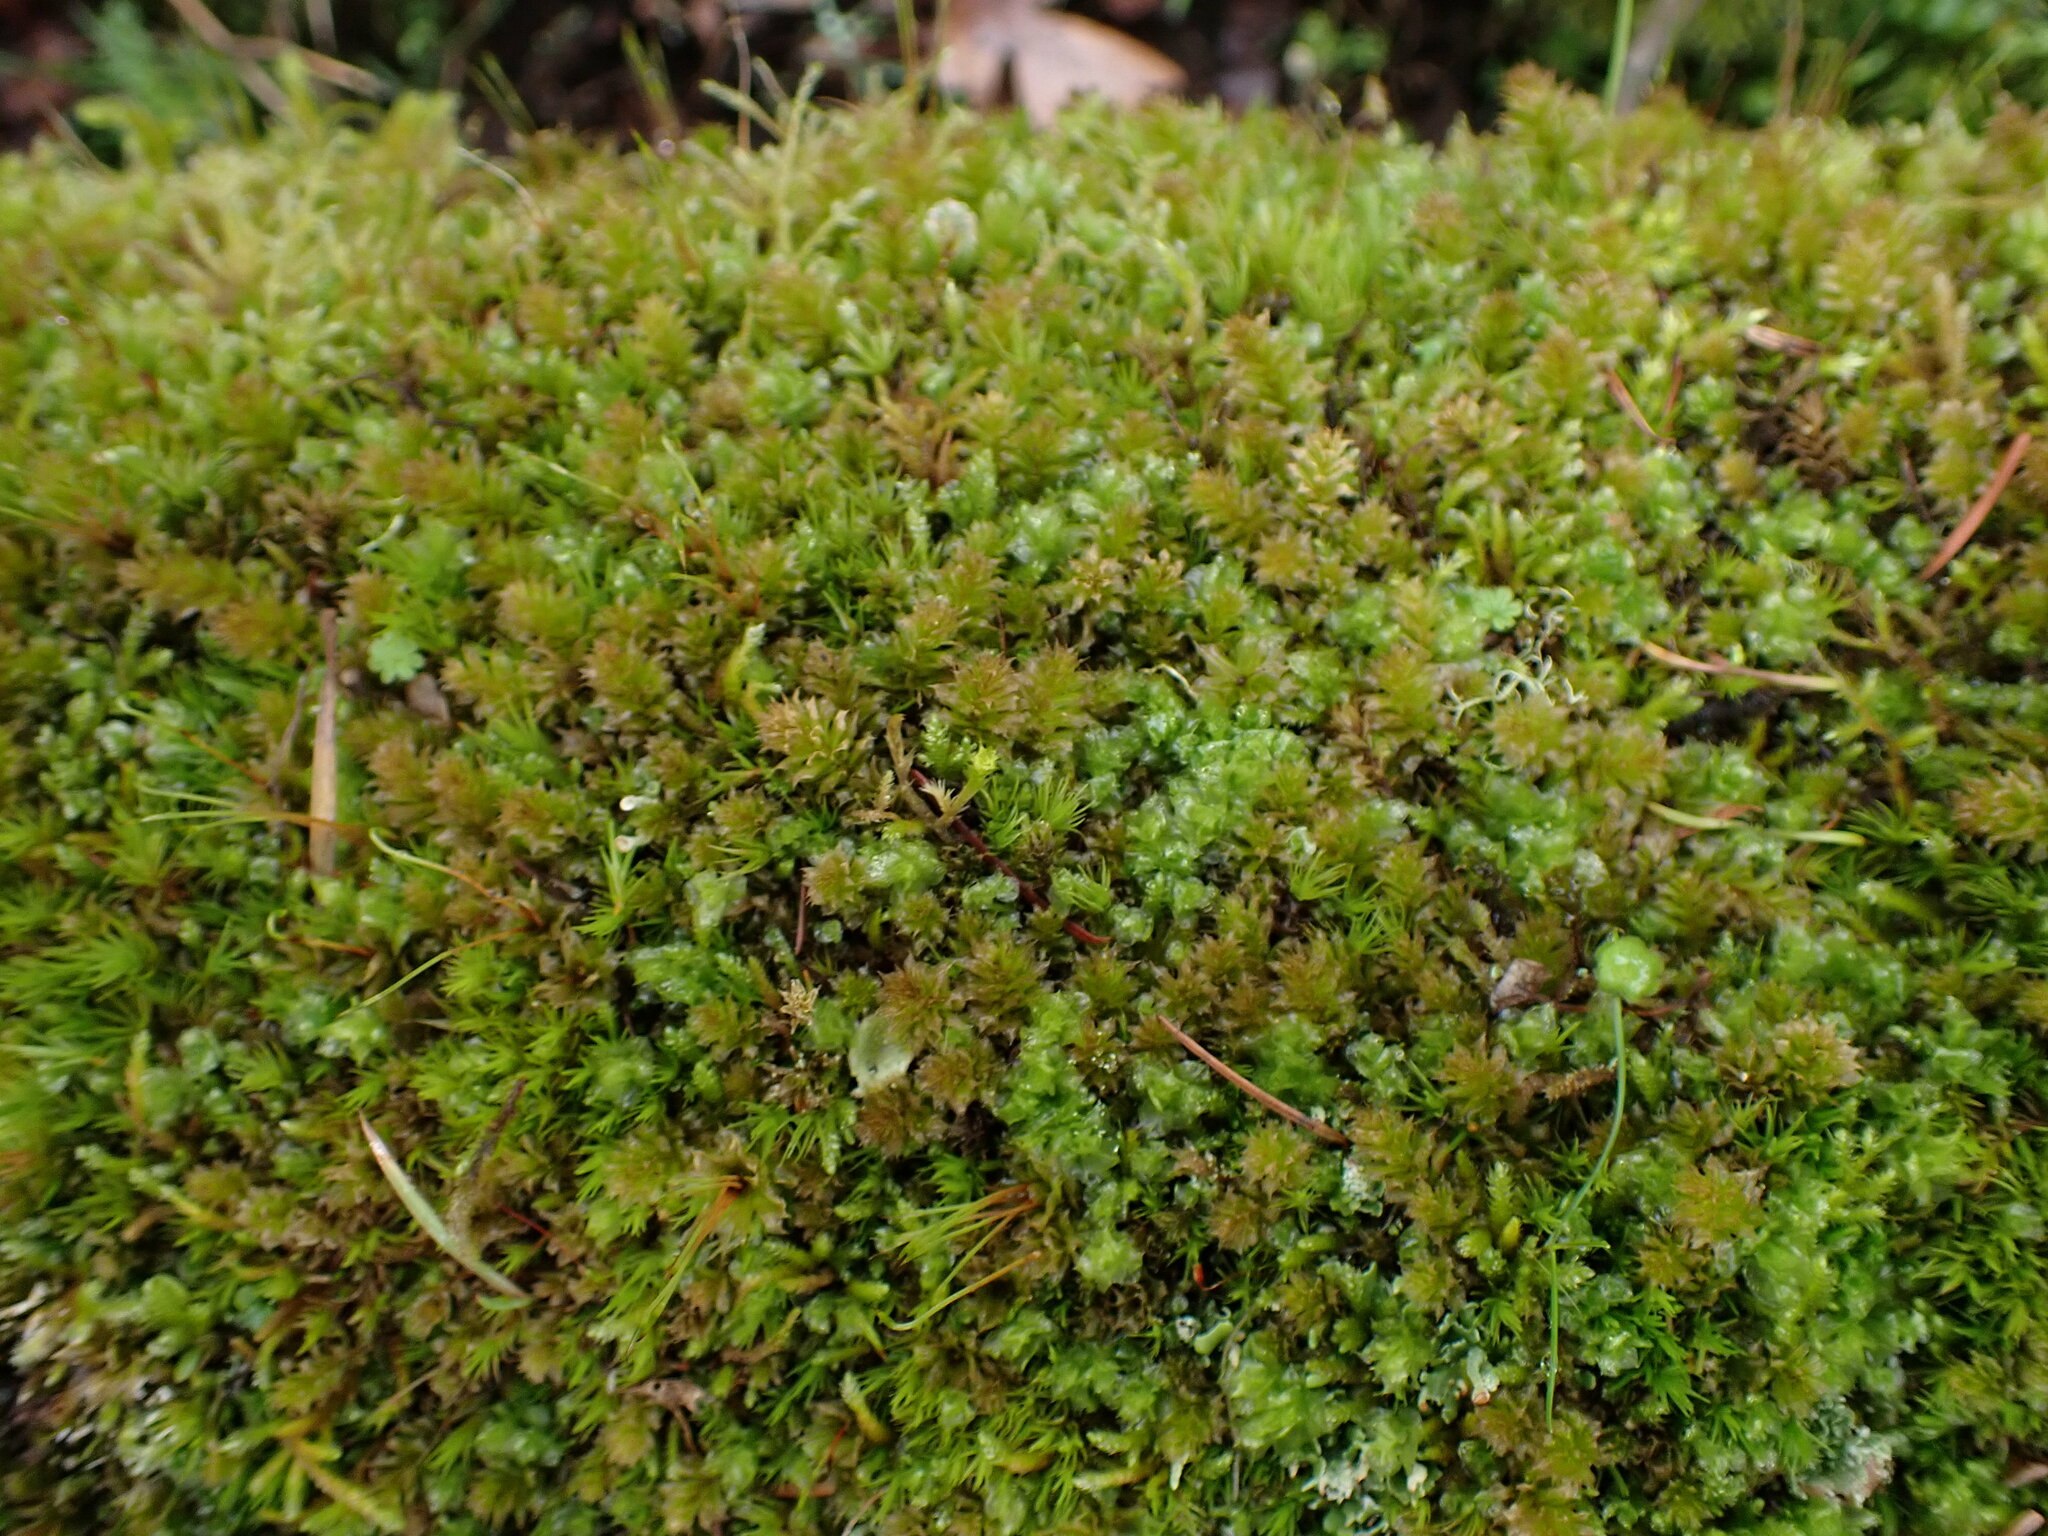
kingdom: Plantae
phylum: Bryophyta
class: Bryopsida
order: Bryales
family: Mniaceae
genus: Plagiomnium
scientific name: Plagiomnium venustum
